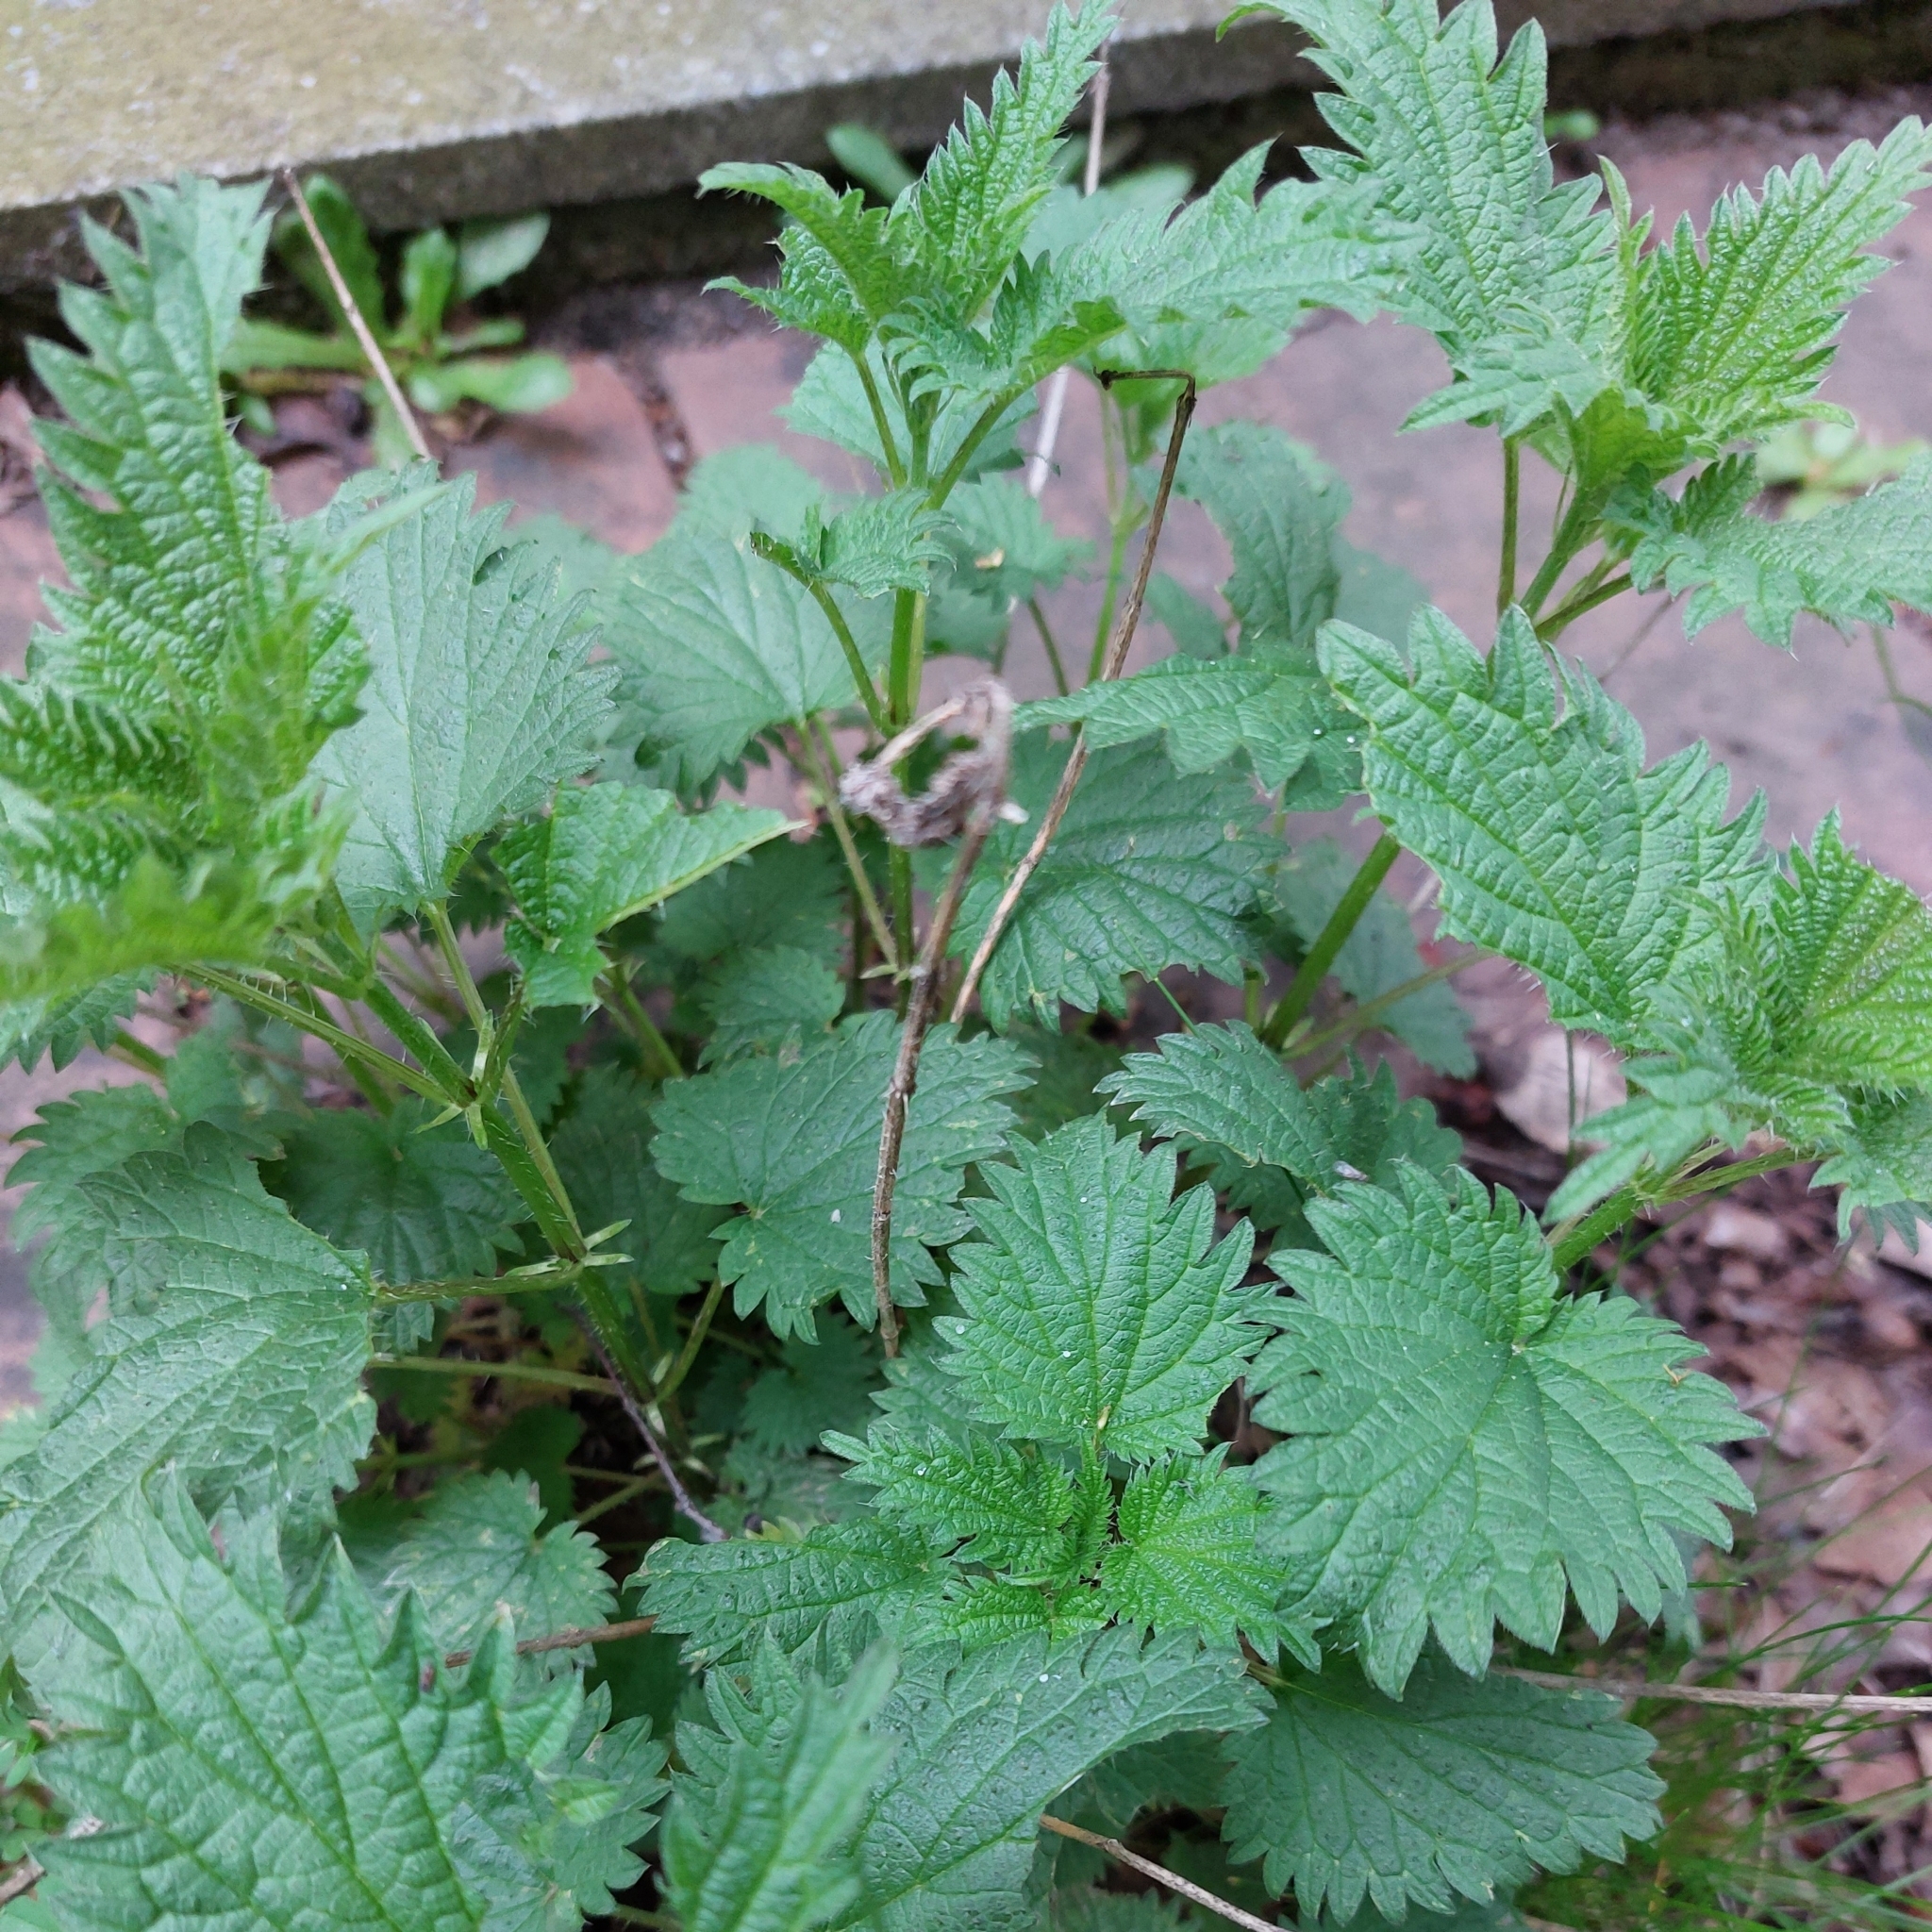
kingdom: Plantae
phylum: Tracheophyta
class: Magnoliopsida
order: Rosales
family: Urticaceae
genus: Urtica
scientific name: Urtica dioica
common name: Common nettle
